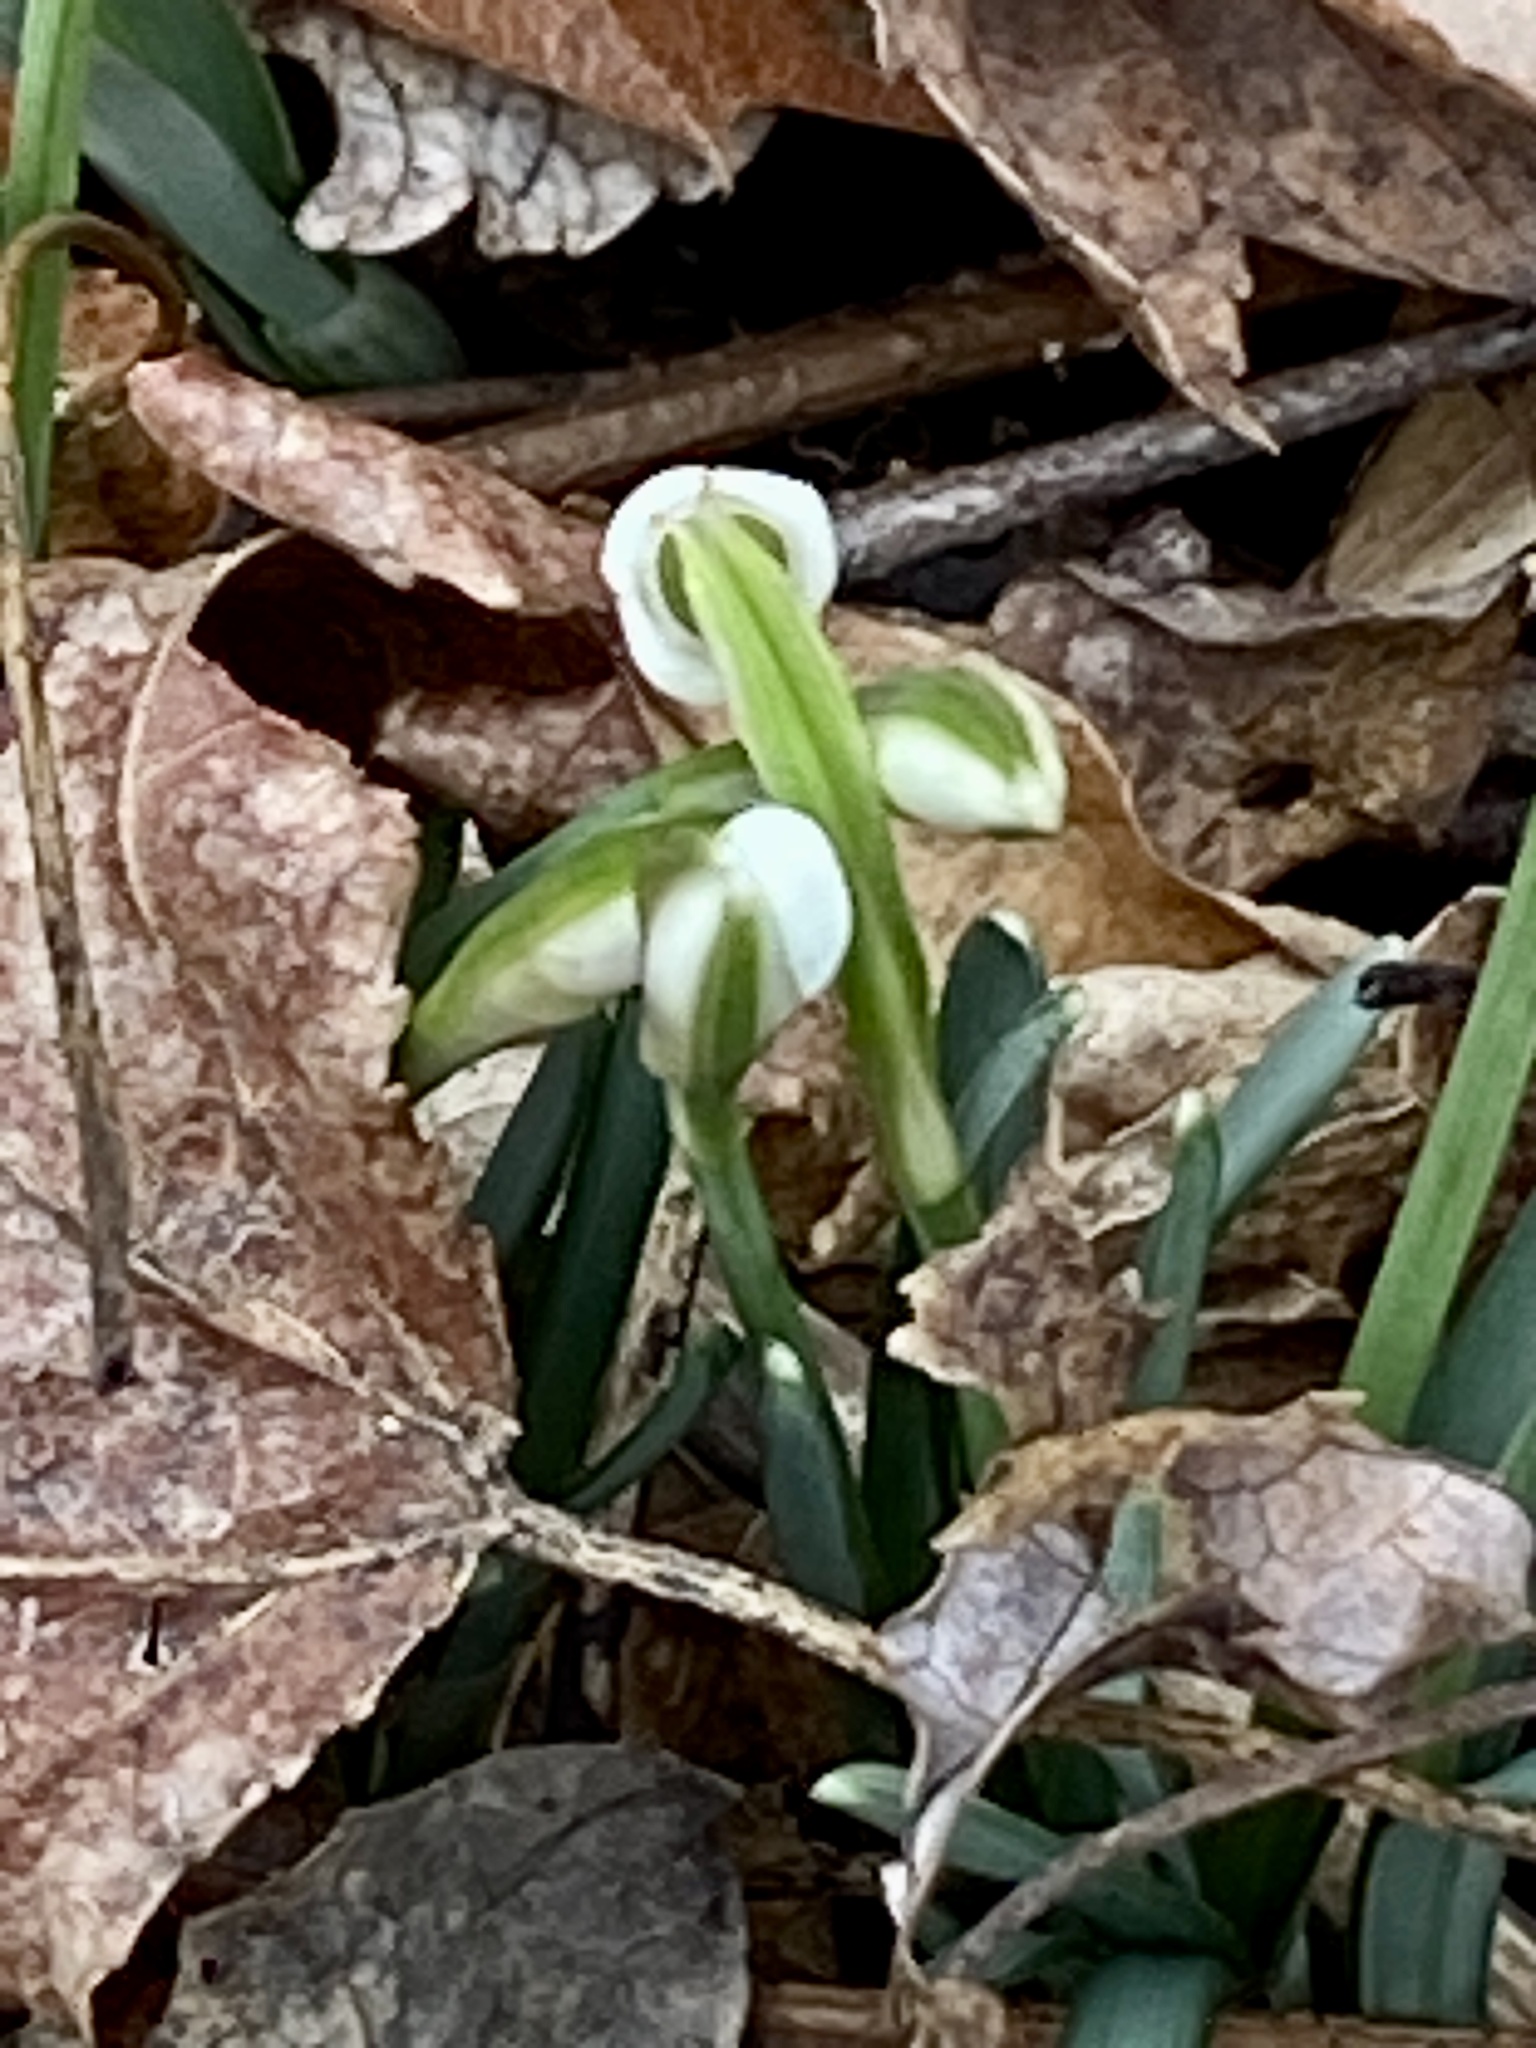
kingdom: Plantae
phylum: Tracheophyta
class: Liliopsida
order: Asparagales
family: Amaryllidaceae
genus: Galanthus
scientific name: Galanthus nivalis
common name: Snowdrop
